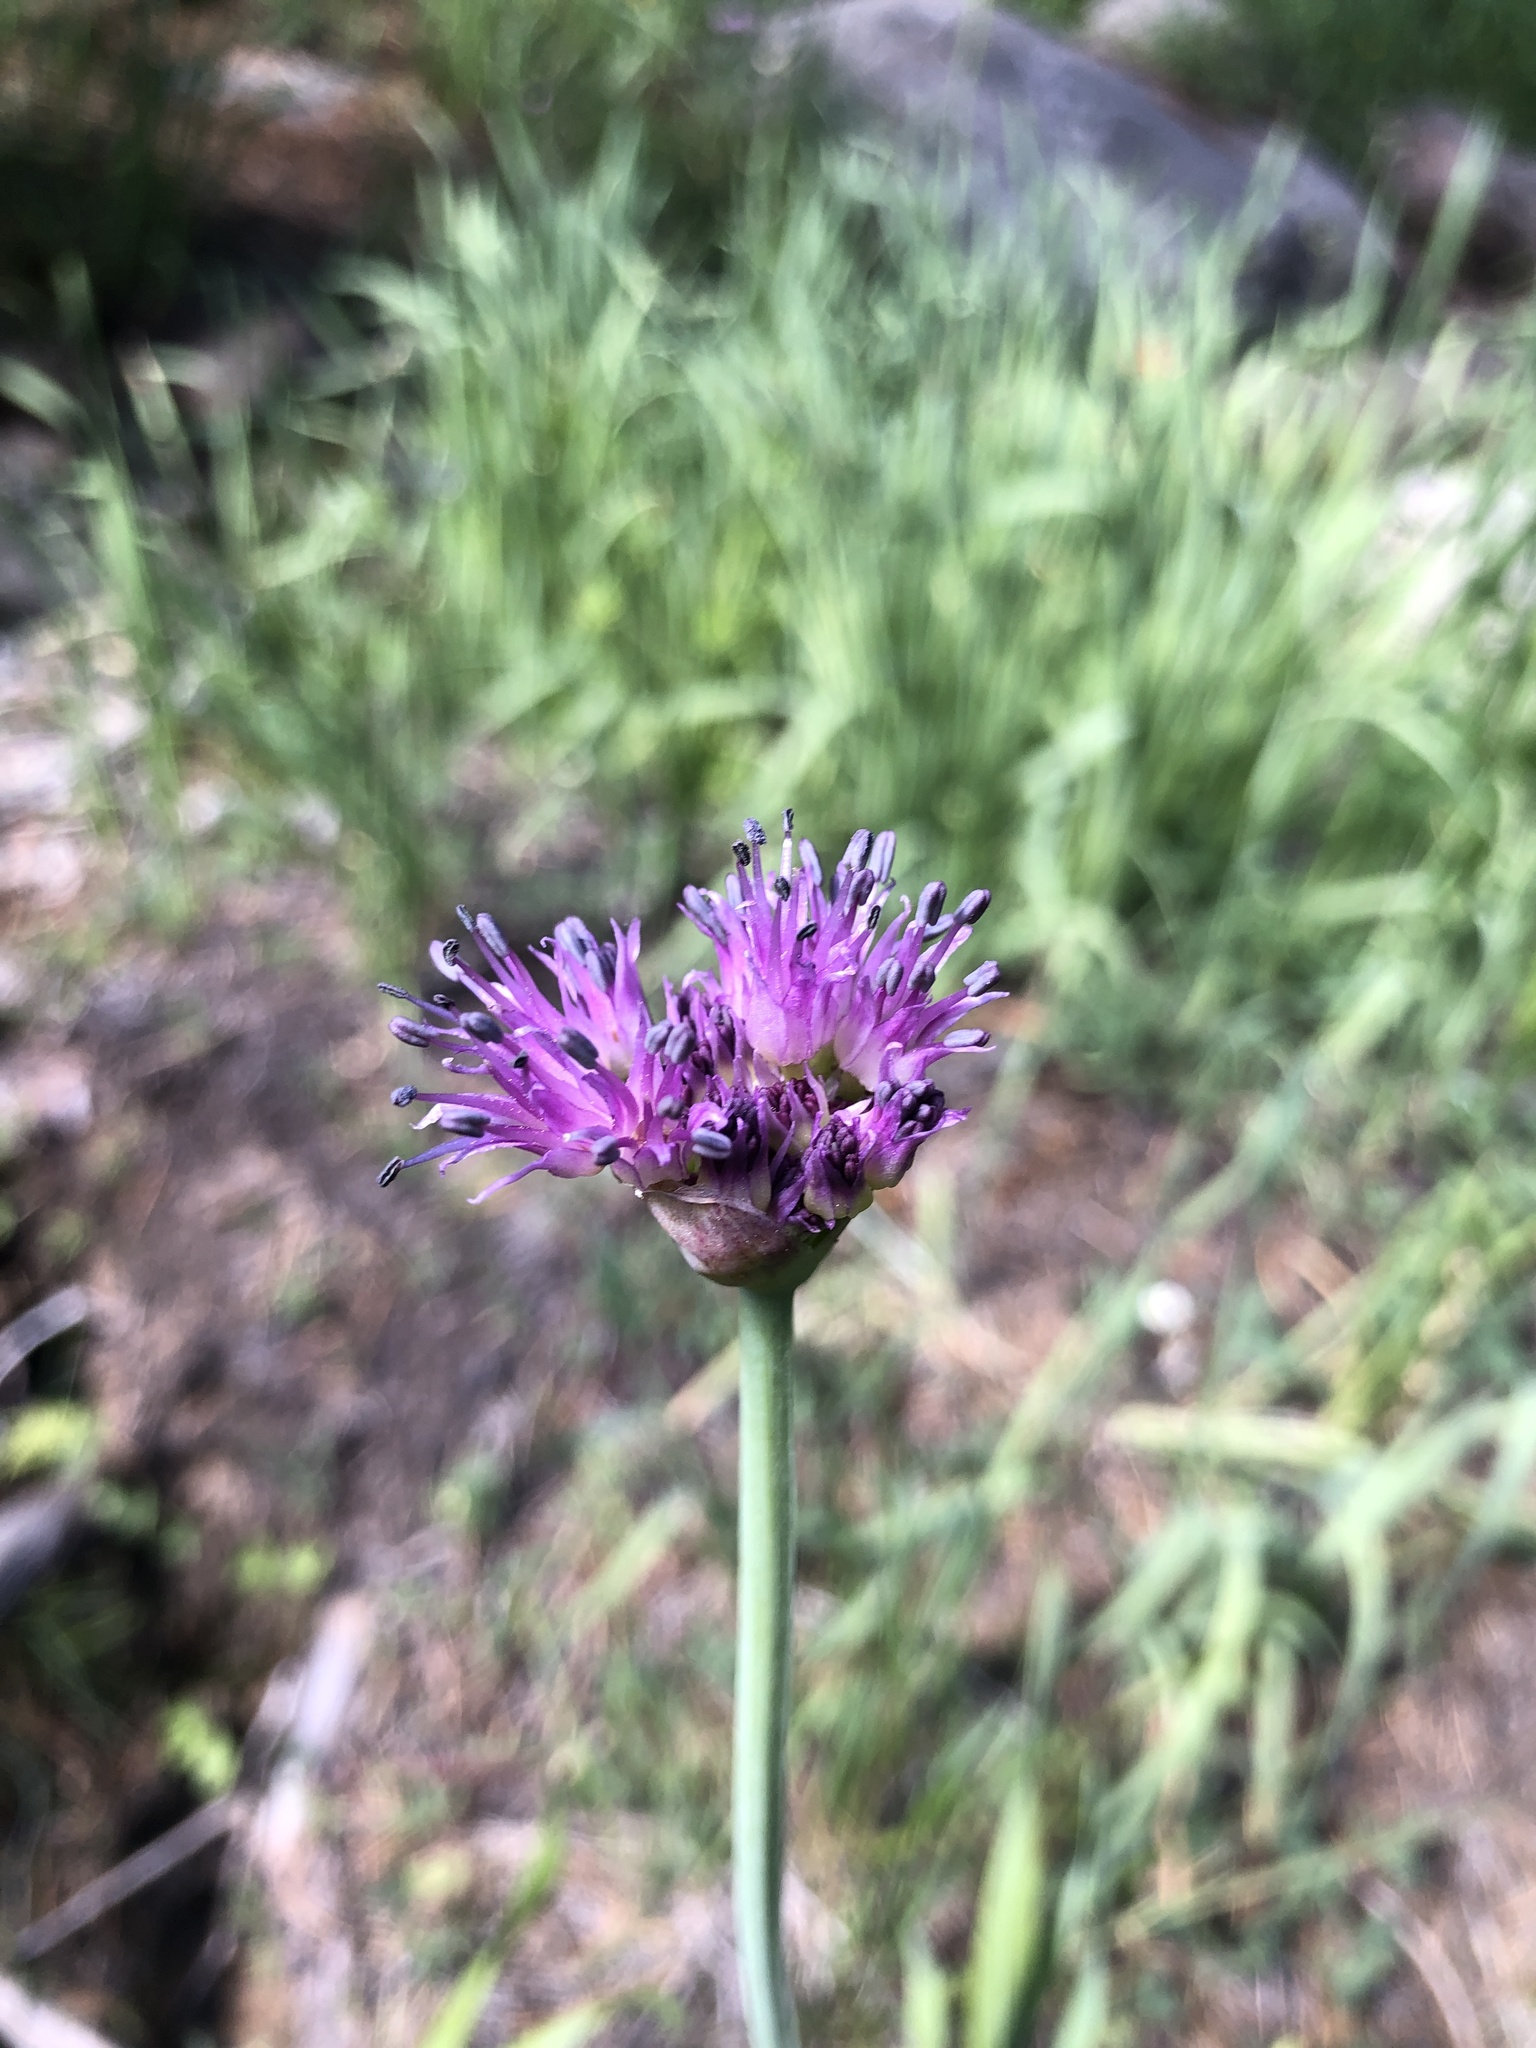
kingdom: Plantae
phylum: Tracheophyta
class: Liliopsida
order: Asparagales
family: Amaryllidaceae
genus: Allium
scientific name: Allium validum
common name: Pacific mountain onion
